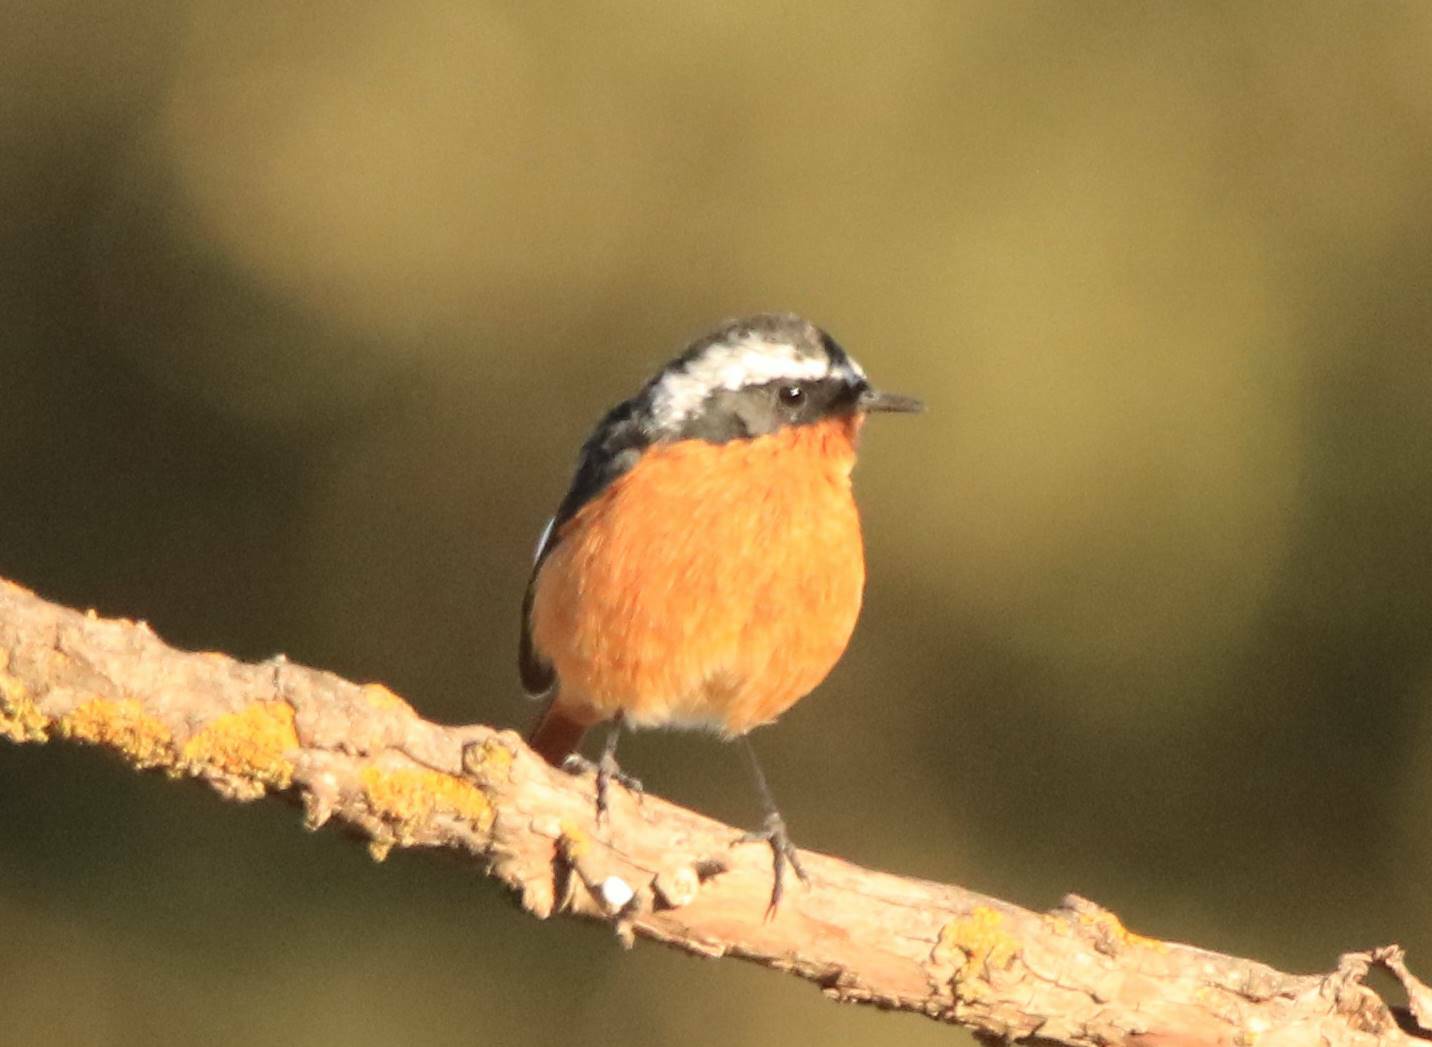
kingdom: Animalia
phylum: Chordata
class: Aves
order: Passeriformes
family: Muscicapidae
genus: Phoenicurus
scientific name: Phoenicurus moussieri
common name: Moussier's redstart
